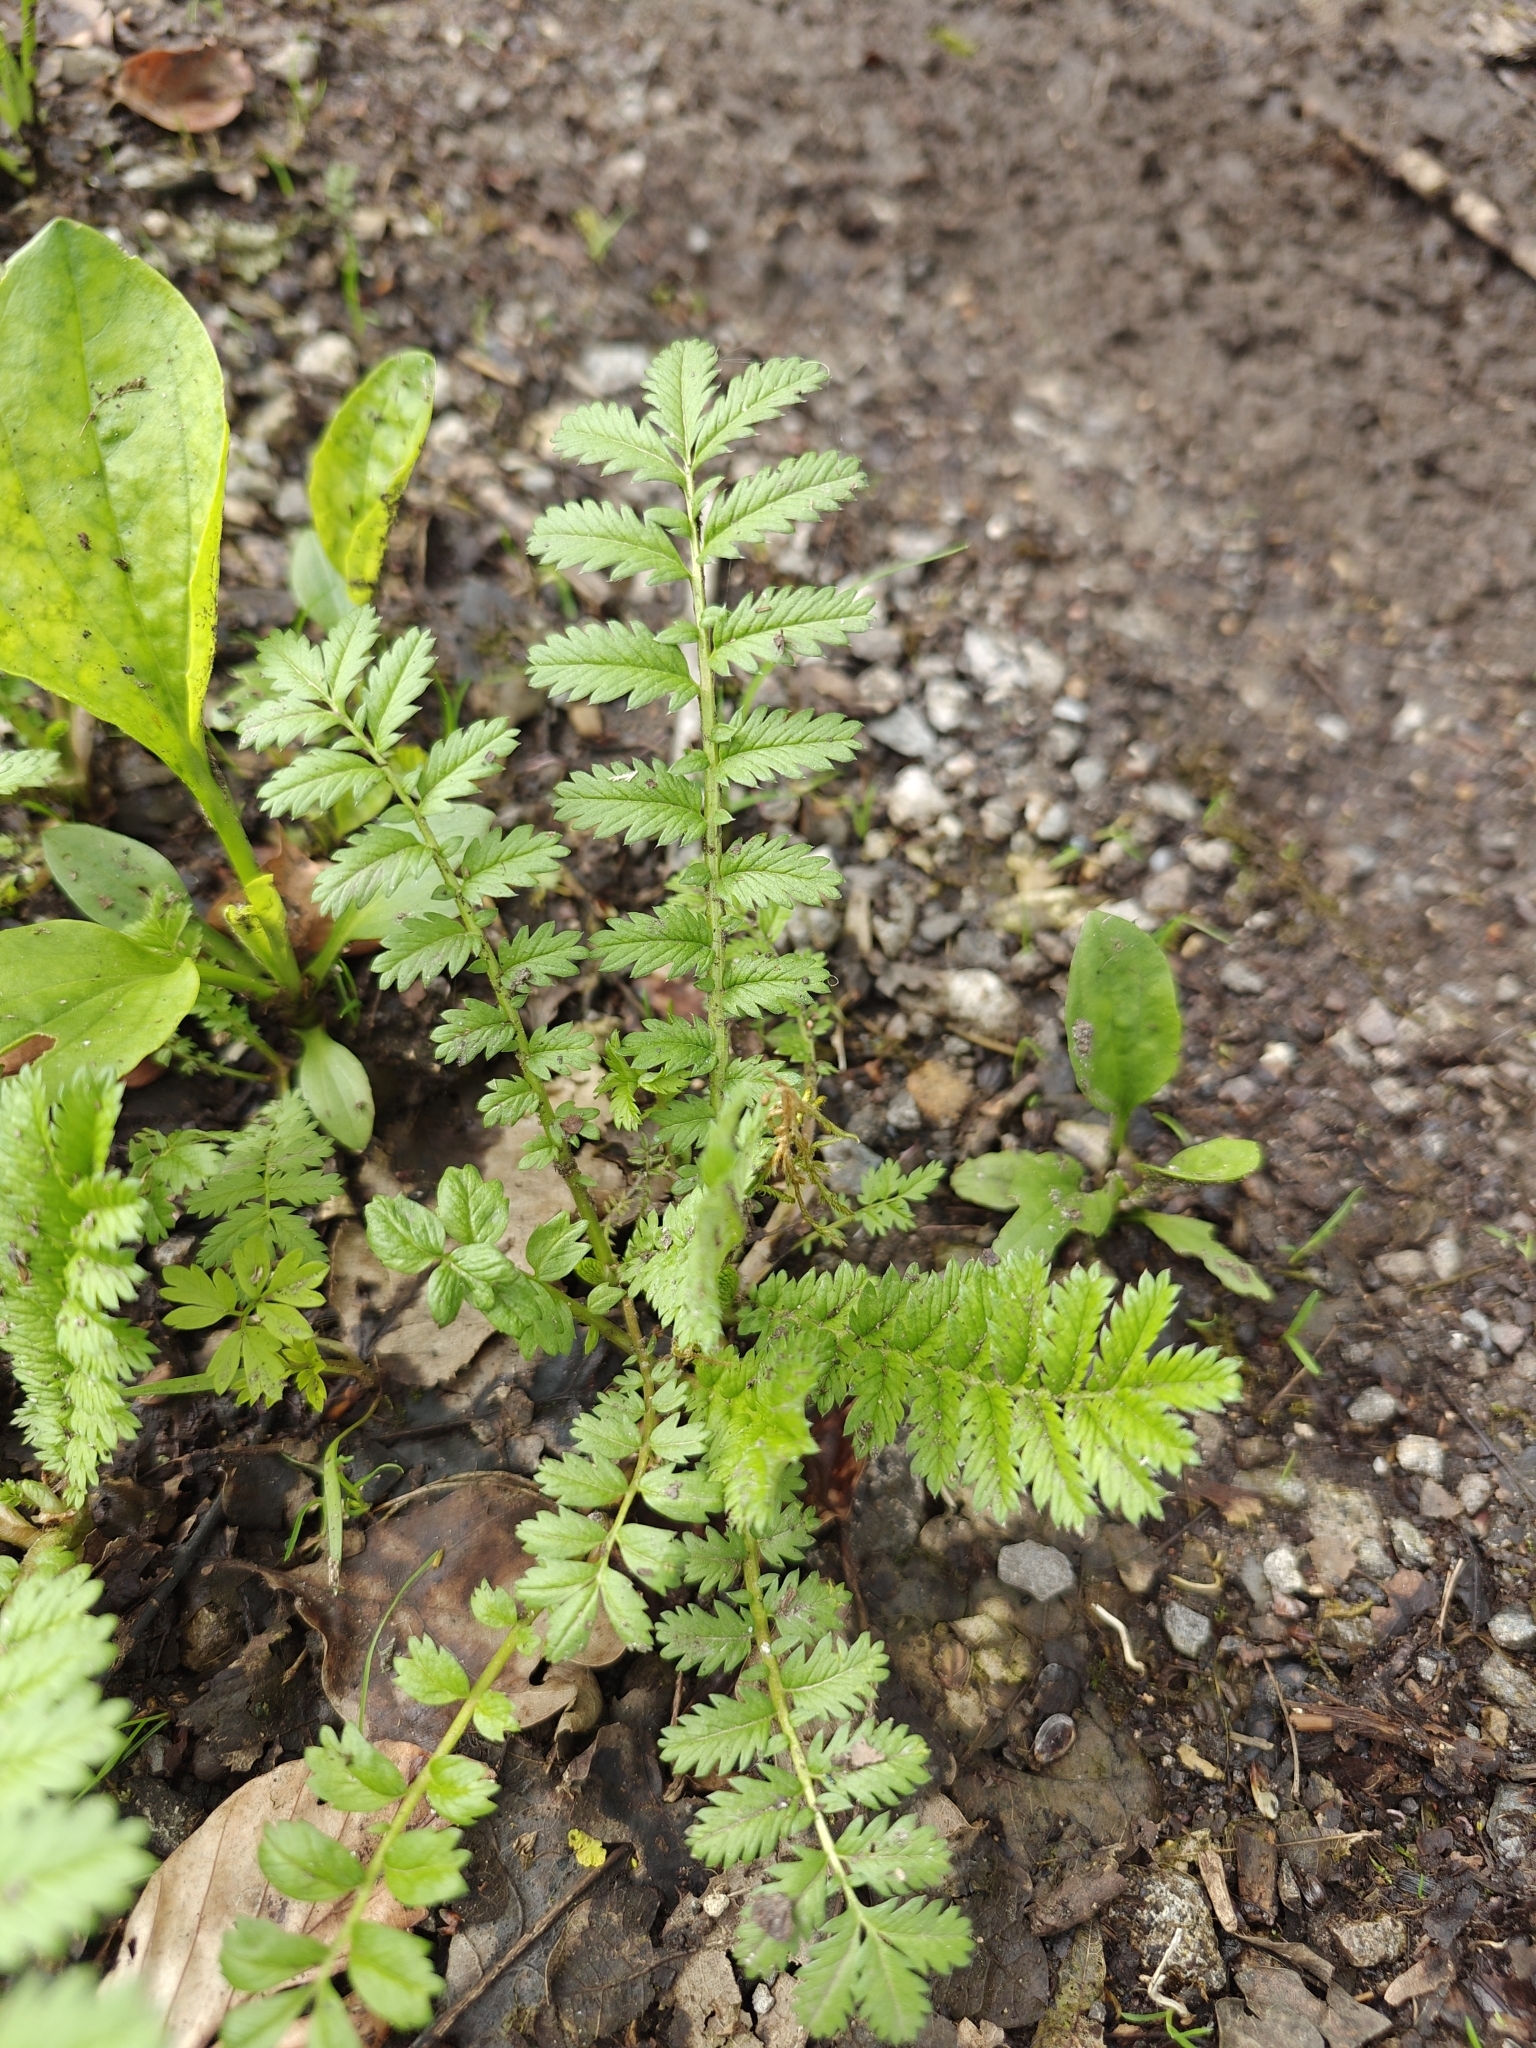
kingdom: Plantae
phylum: Tracheophyta
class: Magnoliopsida
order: Rosales
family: Rosaceae
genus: Argentina
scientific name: Argentina anserina
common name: Common silverweed
